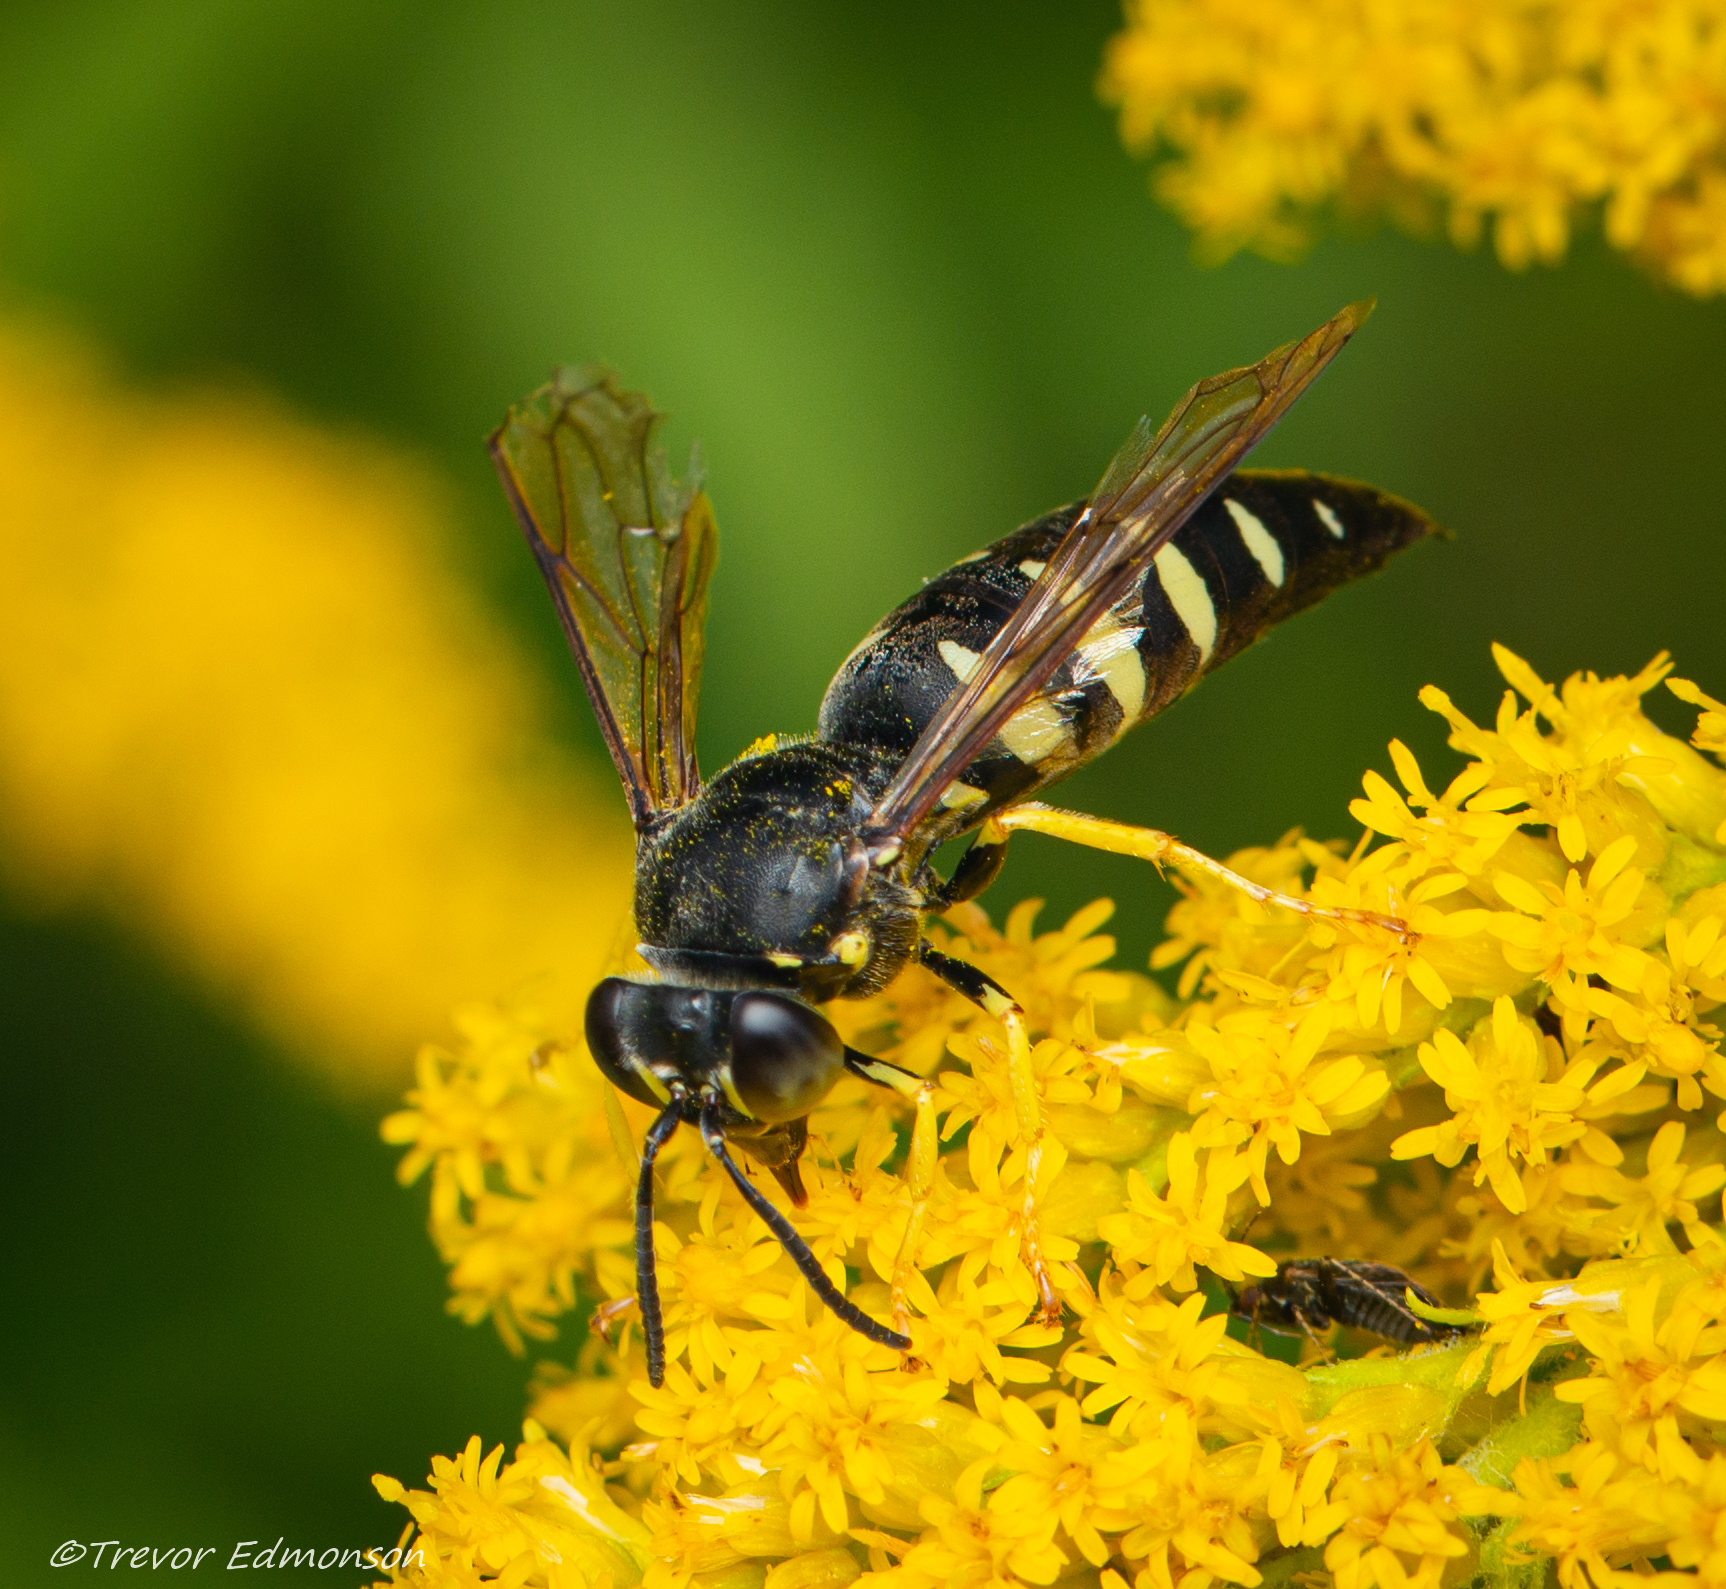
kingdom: Animalia
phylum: Arthropoda
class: Insecta
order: Hymenoptera
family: Crabronidae
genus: Bicyrtes
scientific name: Bicyrtes quadrifasciatus
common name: Four-banded stink bug hunter wasp
